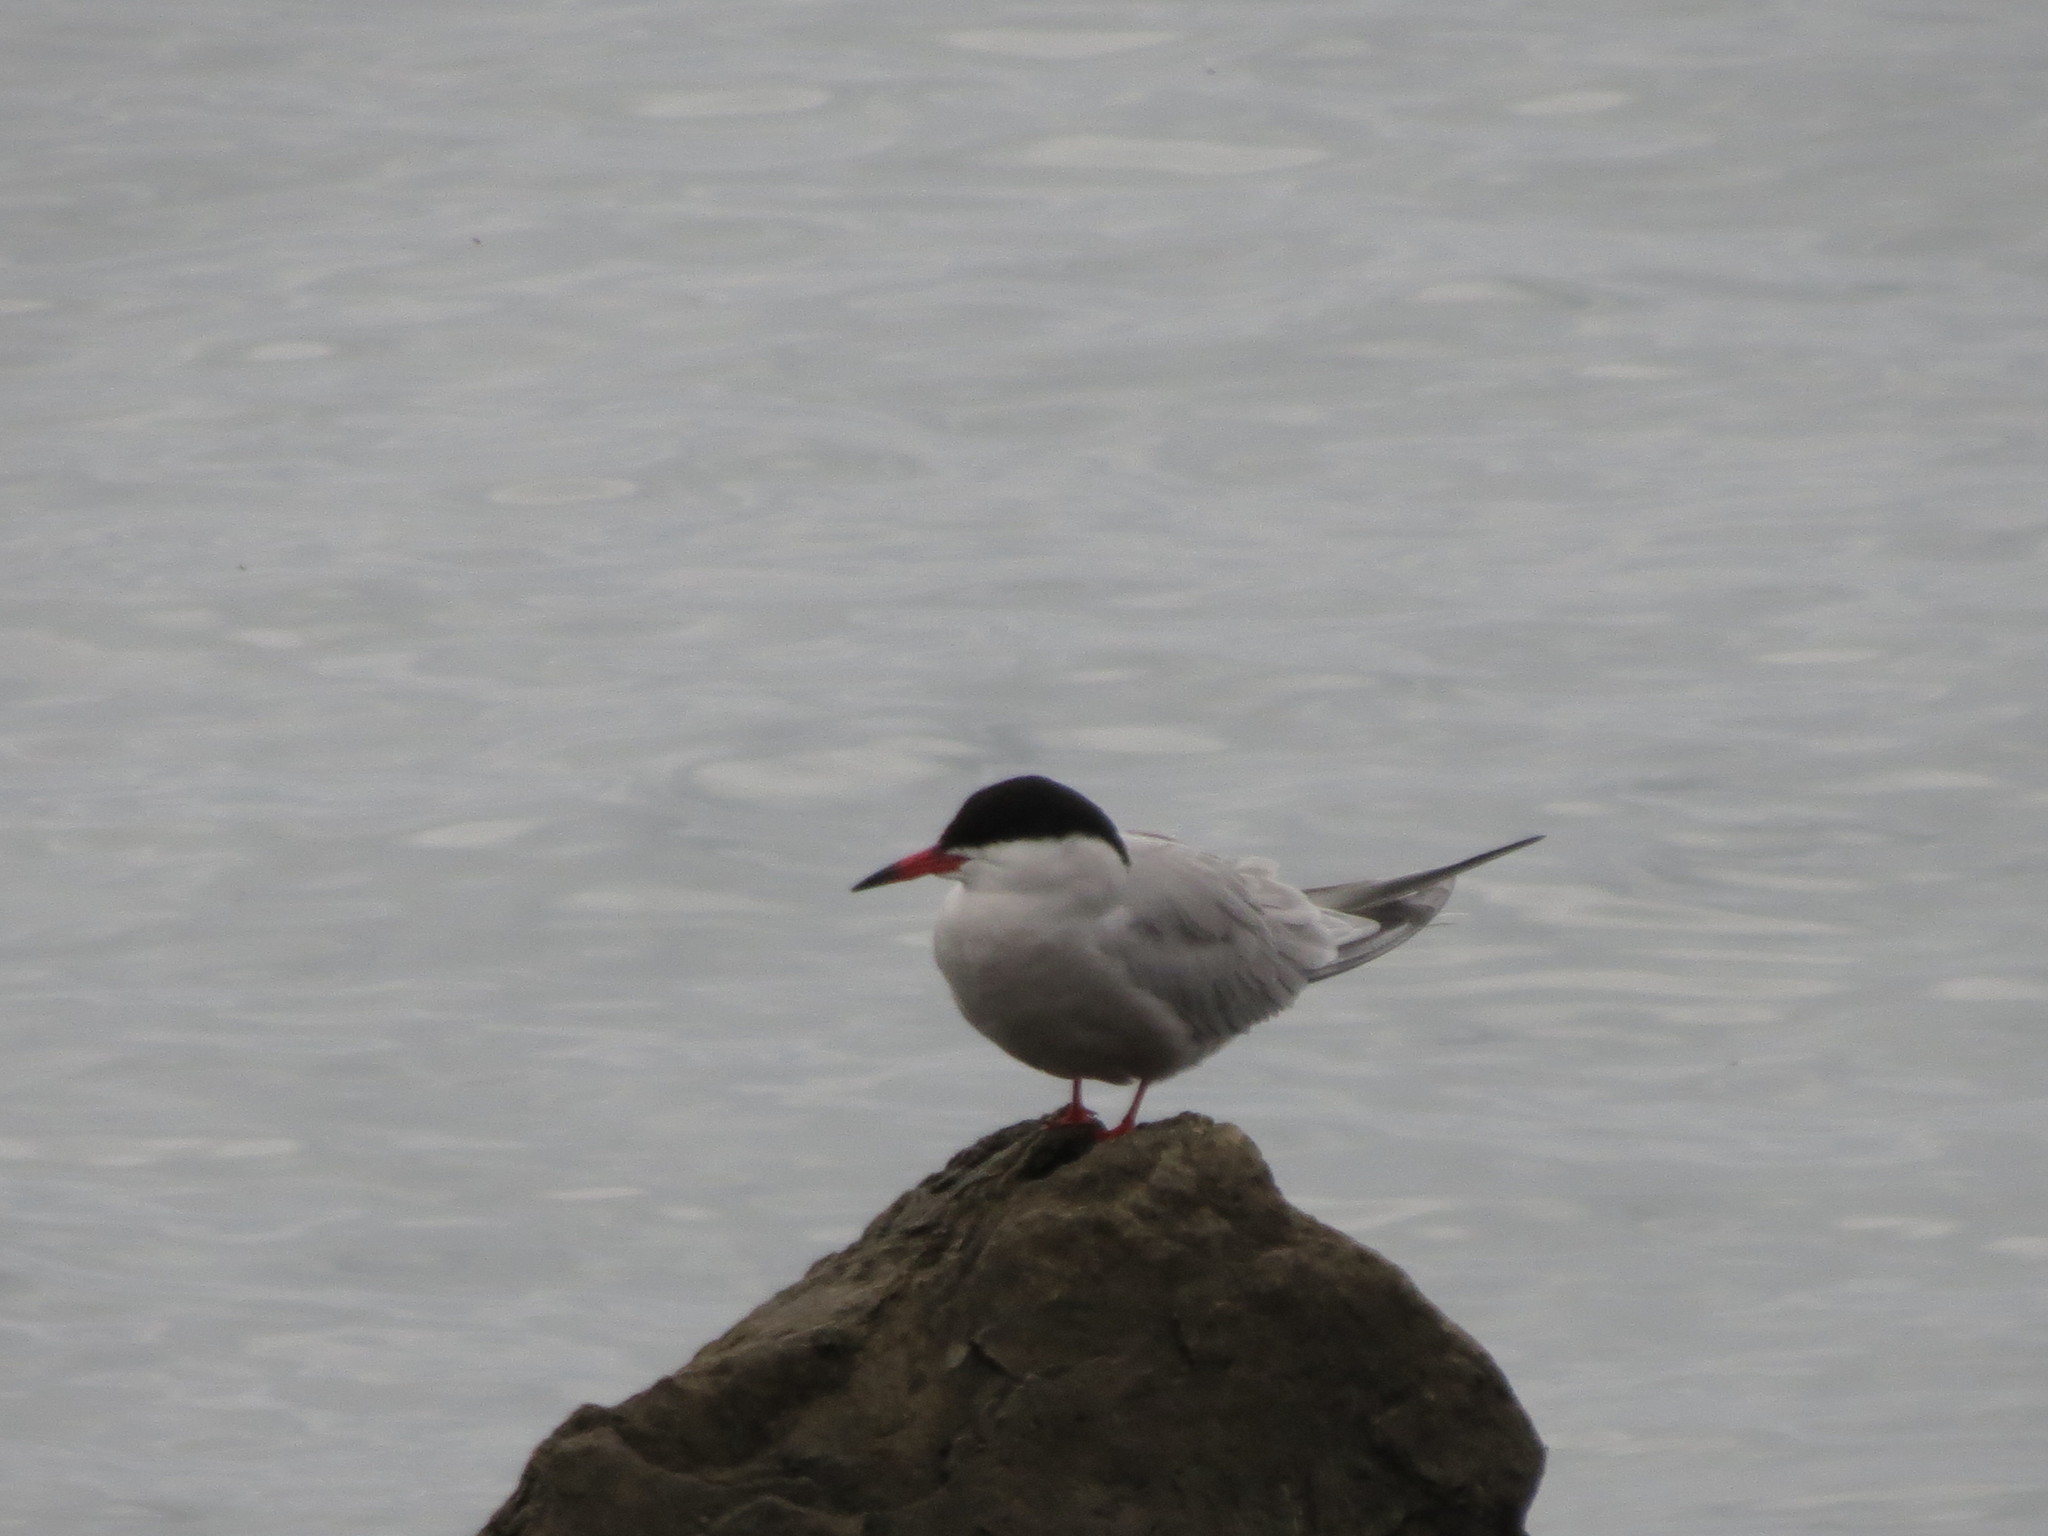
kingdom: Animalia
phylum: Chordata
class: Aves
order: Charadriiformes
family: Laridae
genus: Sterna
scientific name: Sterna hirundo
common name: Common tern
